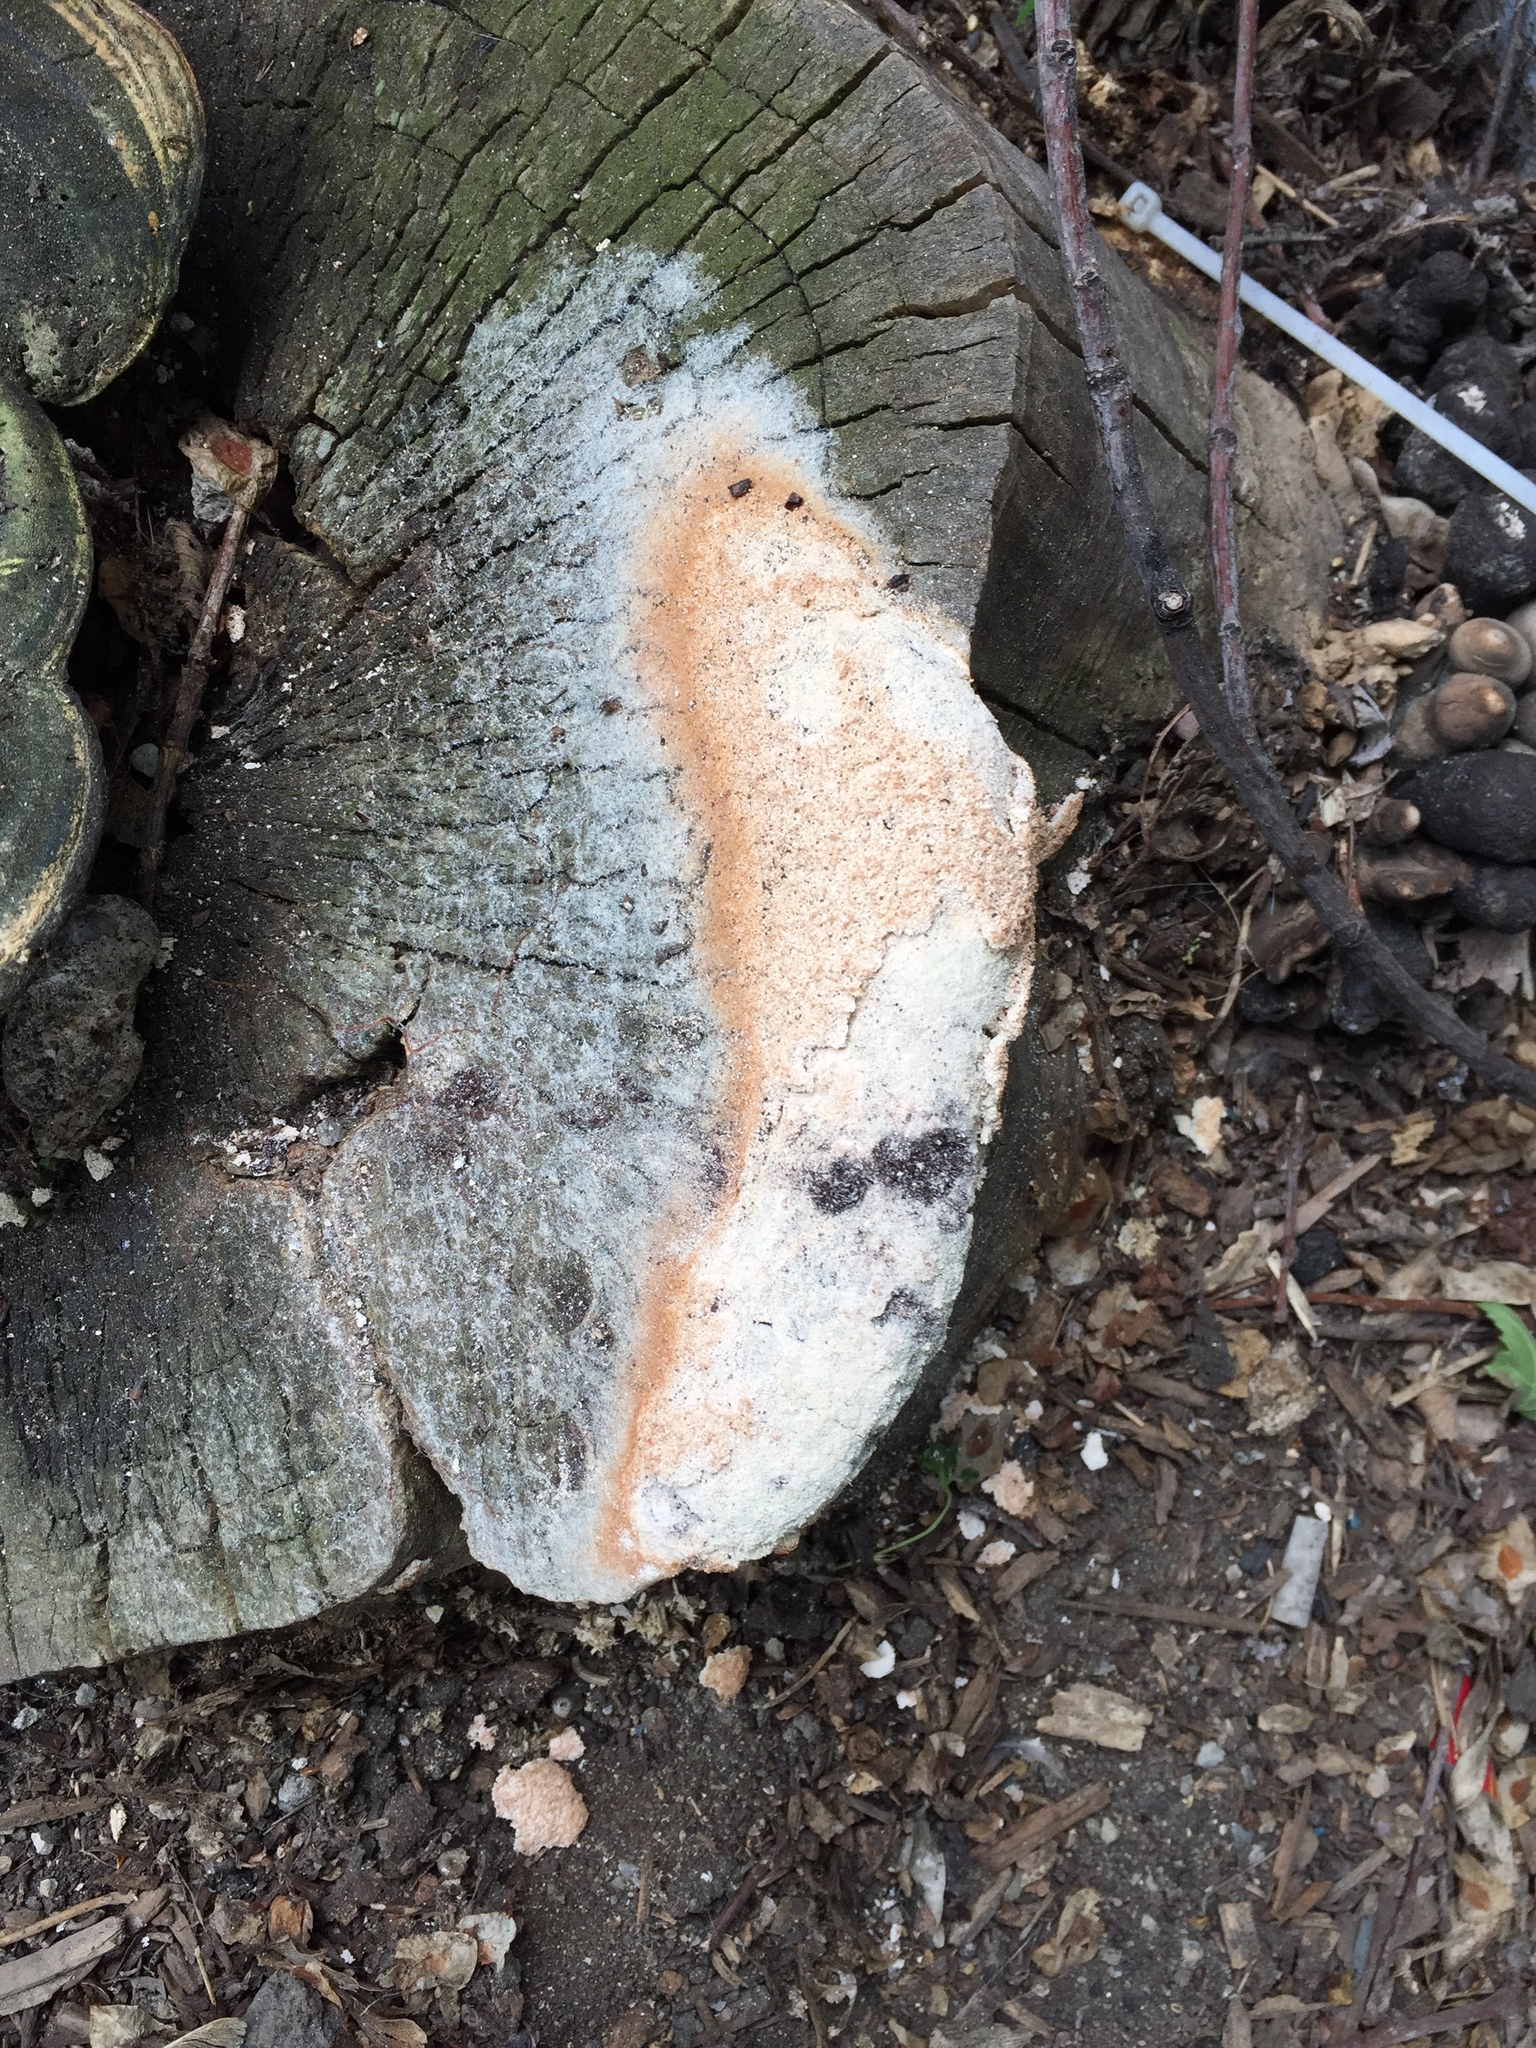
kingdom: Protozoa
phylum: Mycetozoa
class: Myxomycetes
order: Physarales
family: Physaraceae
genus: Fuligo
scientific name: Fuligo septica
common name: Dog vomit slime mold
